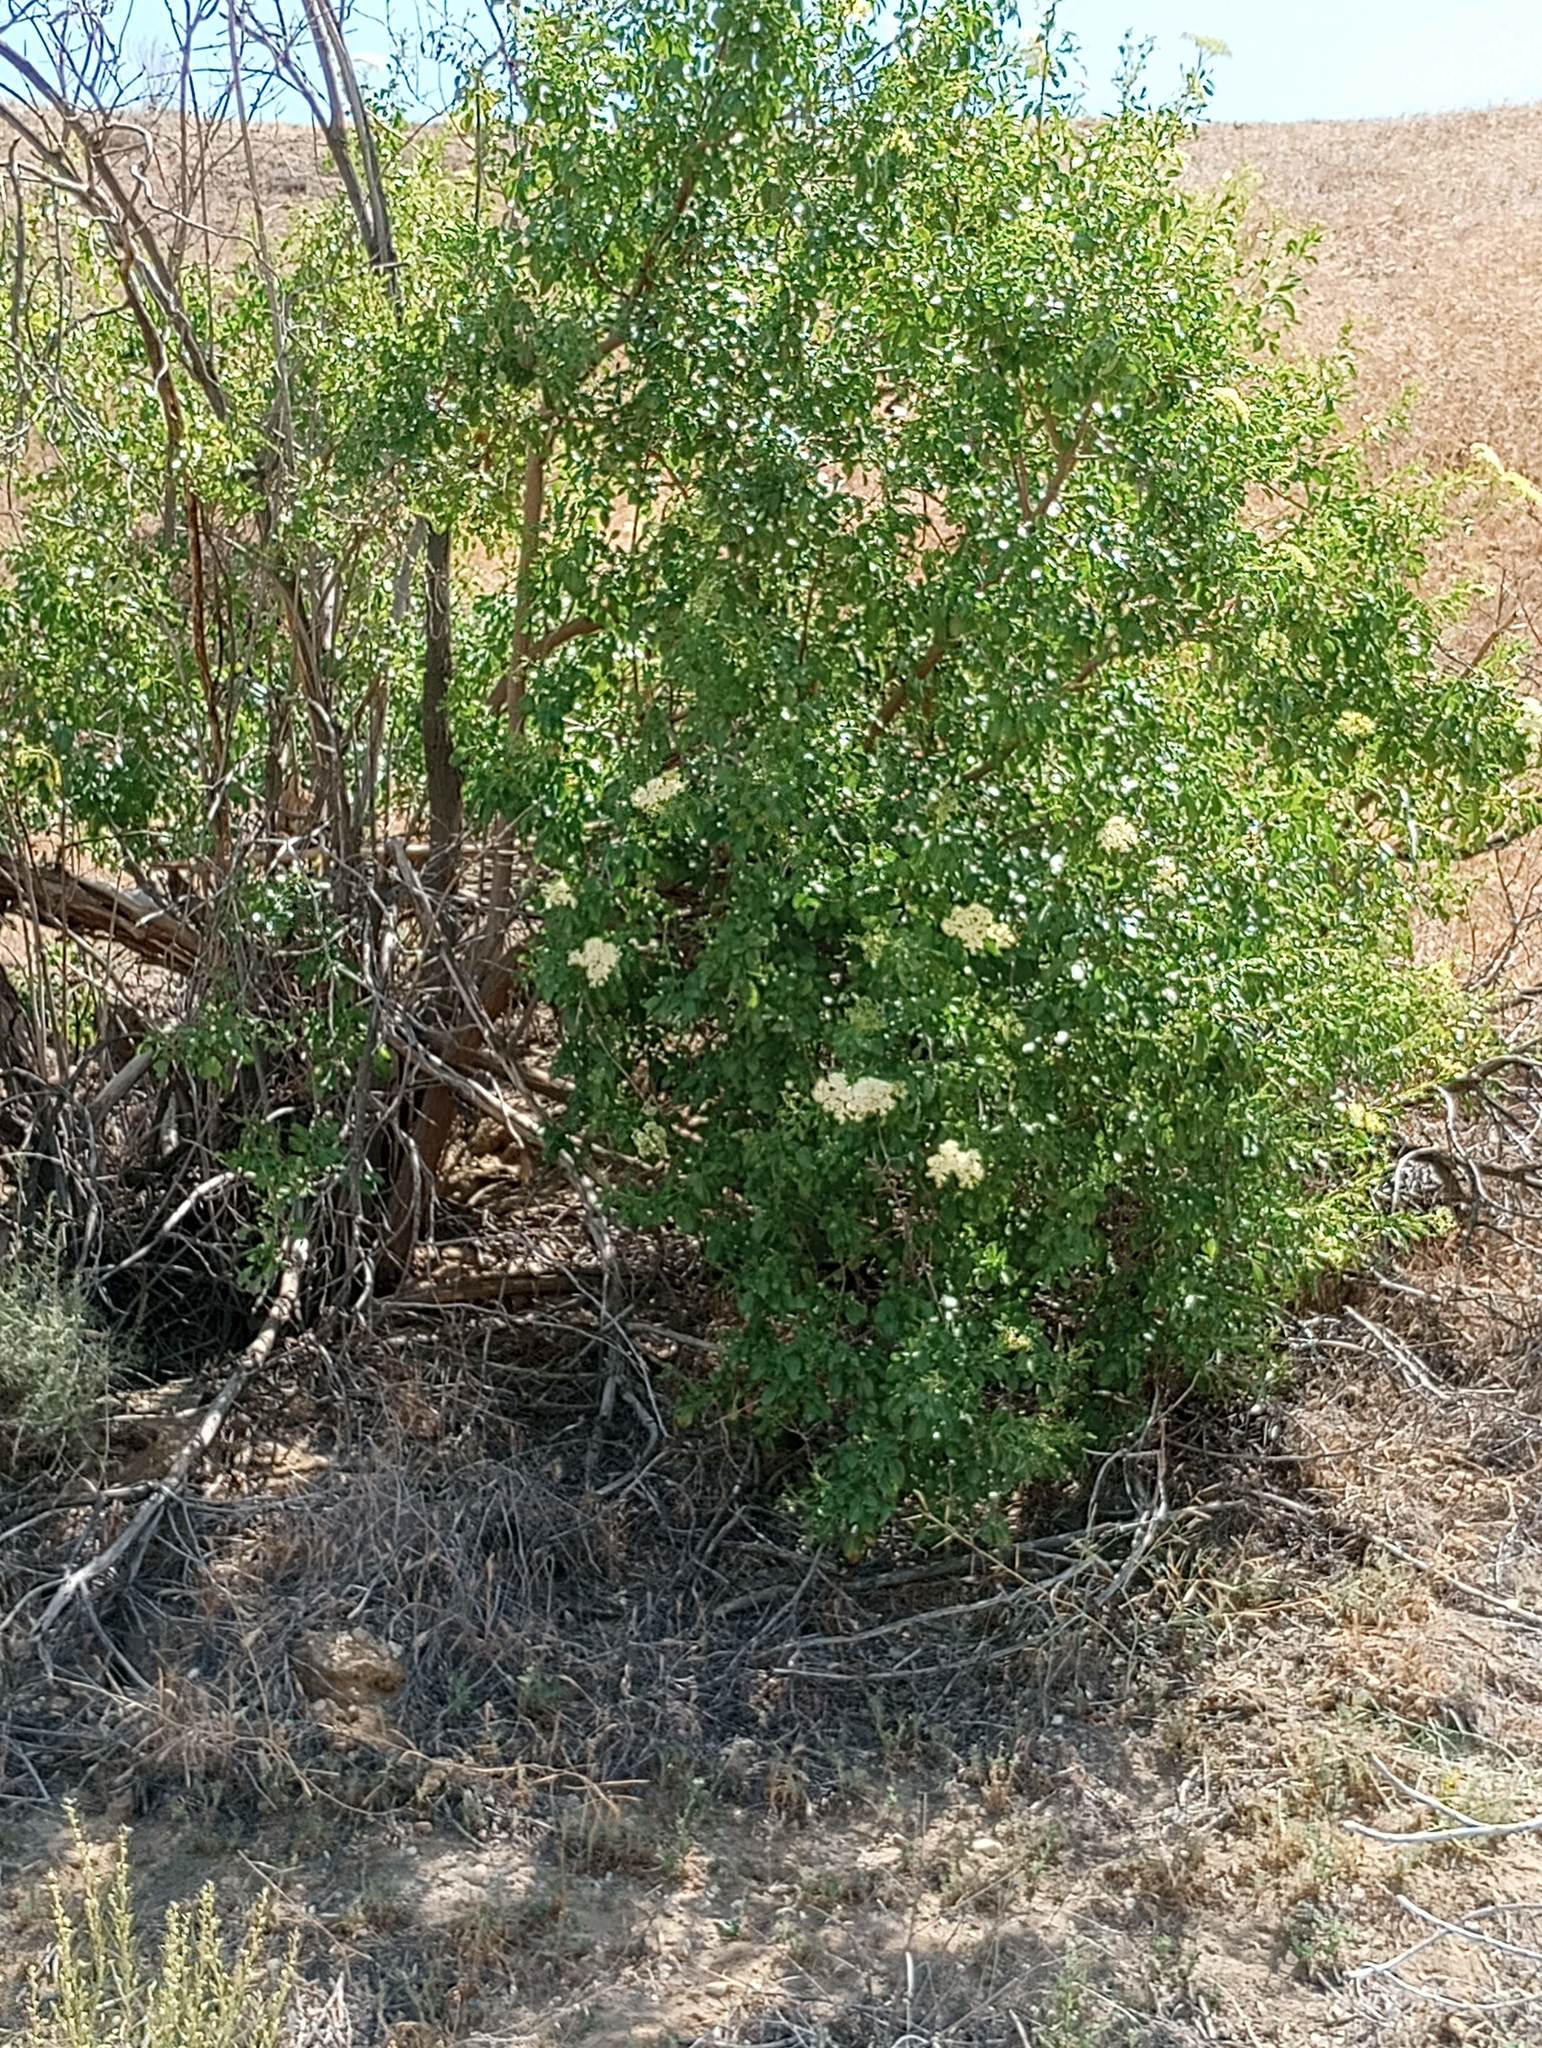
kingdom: Plantae
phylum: Tracheophyta
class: Magnoliopsida
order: Dipsacales
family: Viburnaceae
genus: Sambucus
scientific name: Sambucus cerulea
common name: Blue elder
